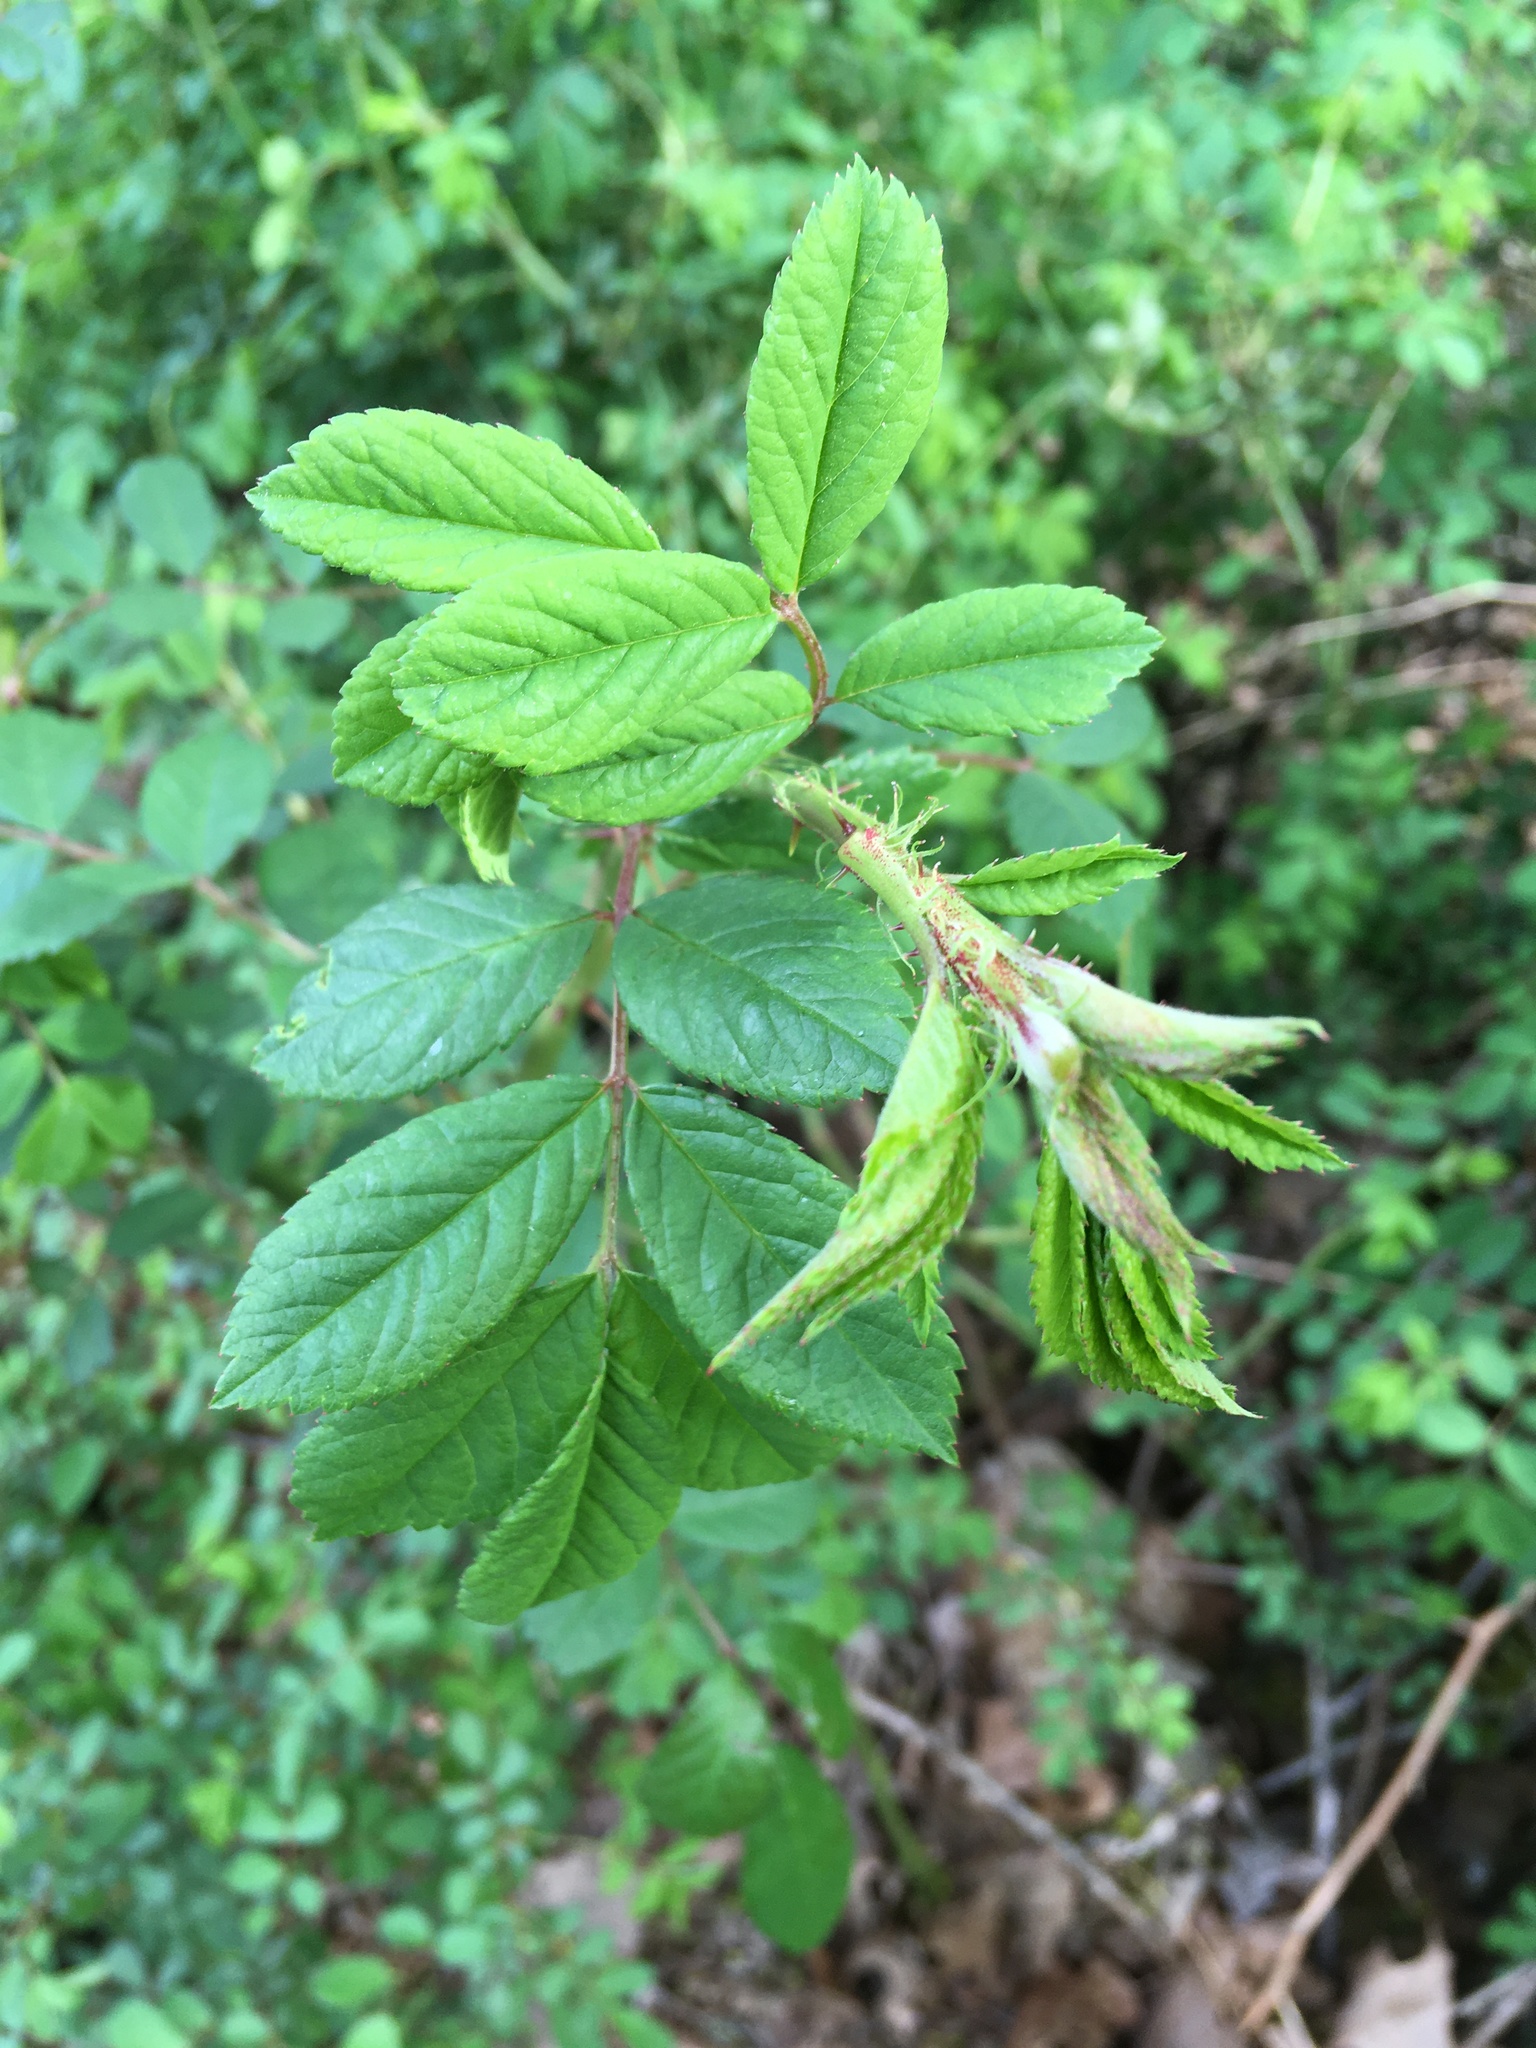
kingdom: Plantae
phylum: Tracheophyta
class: Magnoliopsida
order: Rosales
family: Rosaceae
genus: Rosa
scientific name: Rosa multiflora
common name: Multiflora rose
